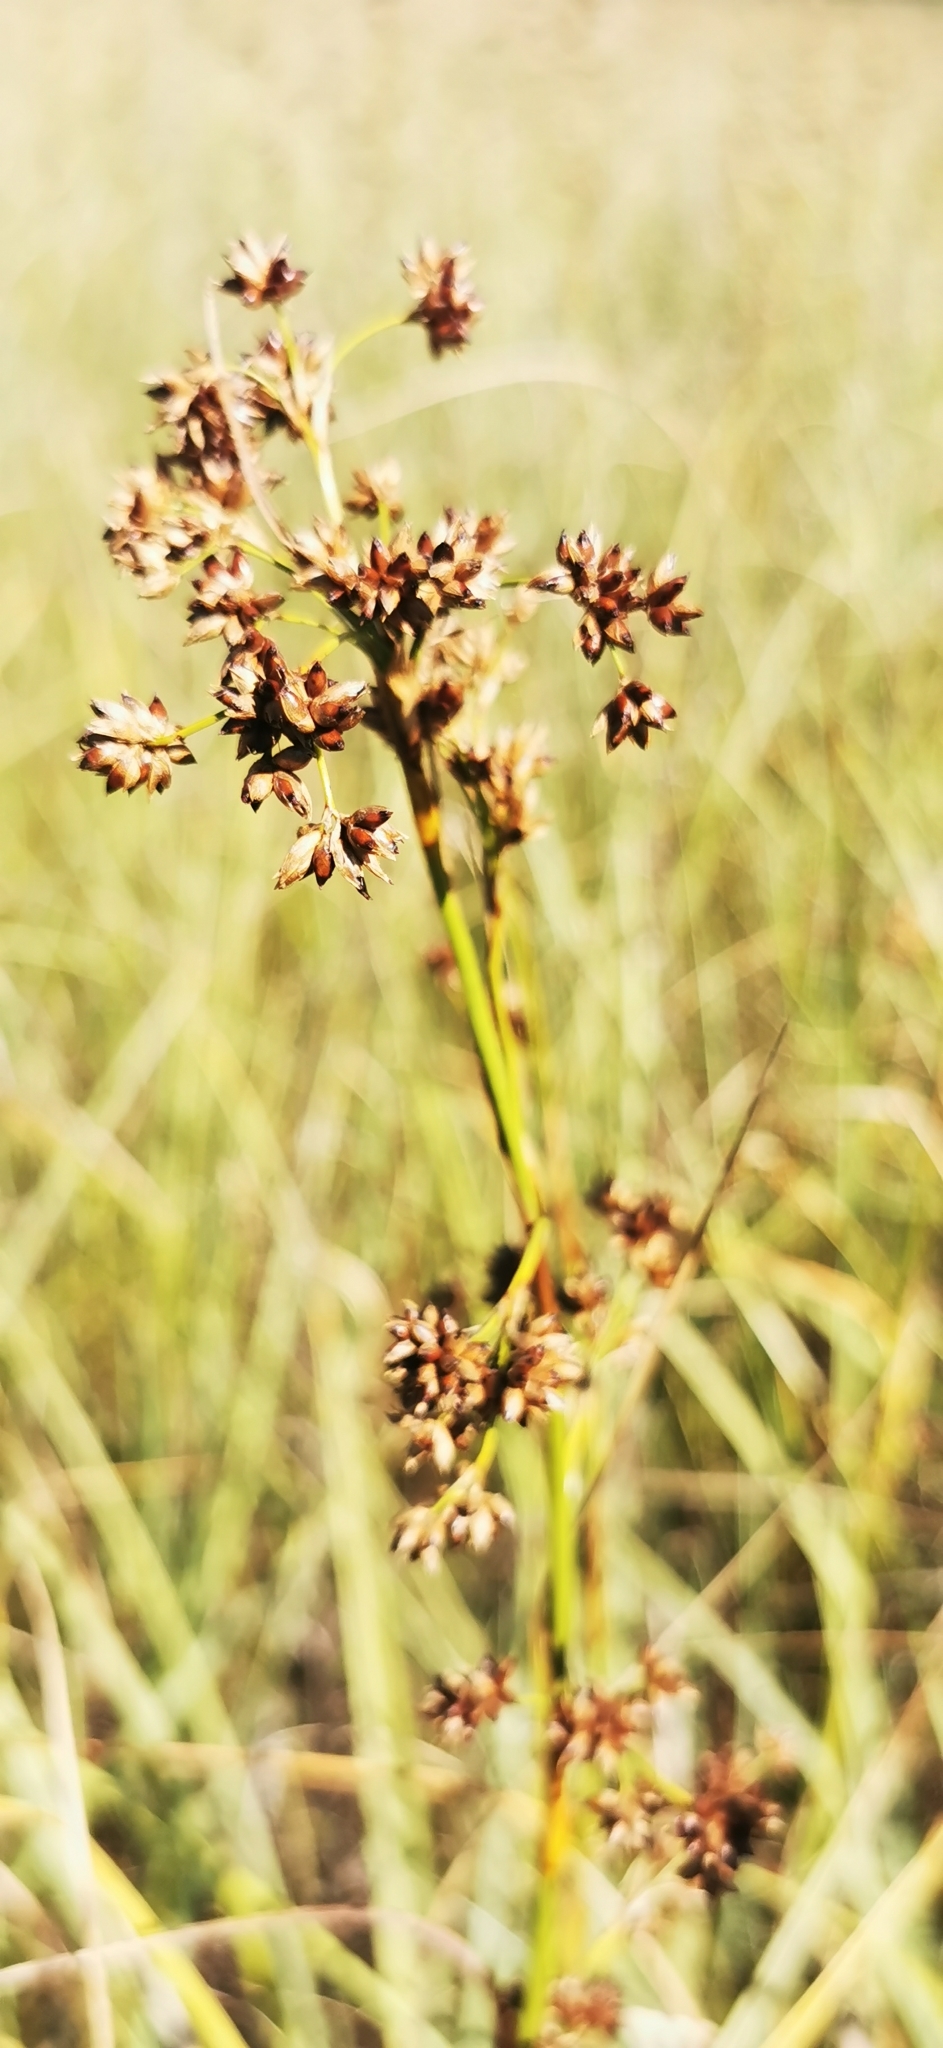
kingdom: Plantae
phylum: Tracheophyta
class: Liliopsida
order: Poales
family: Cyperaceae
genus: Cladium
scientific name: Cladium mariscus
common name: Great fen-sedge
